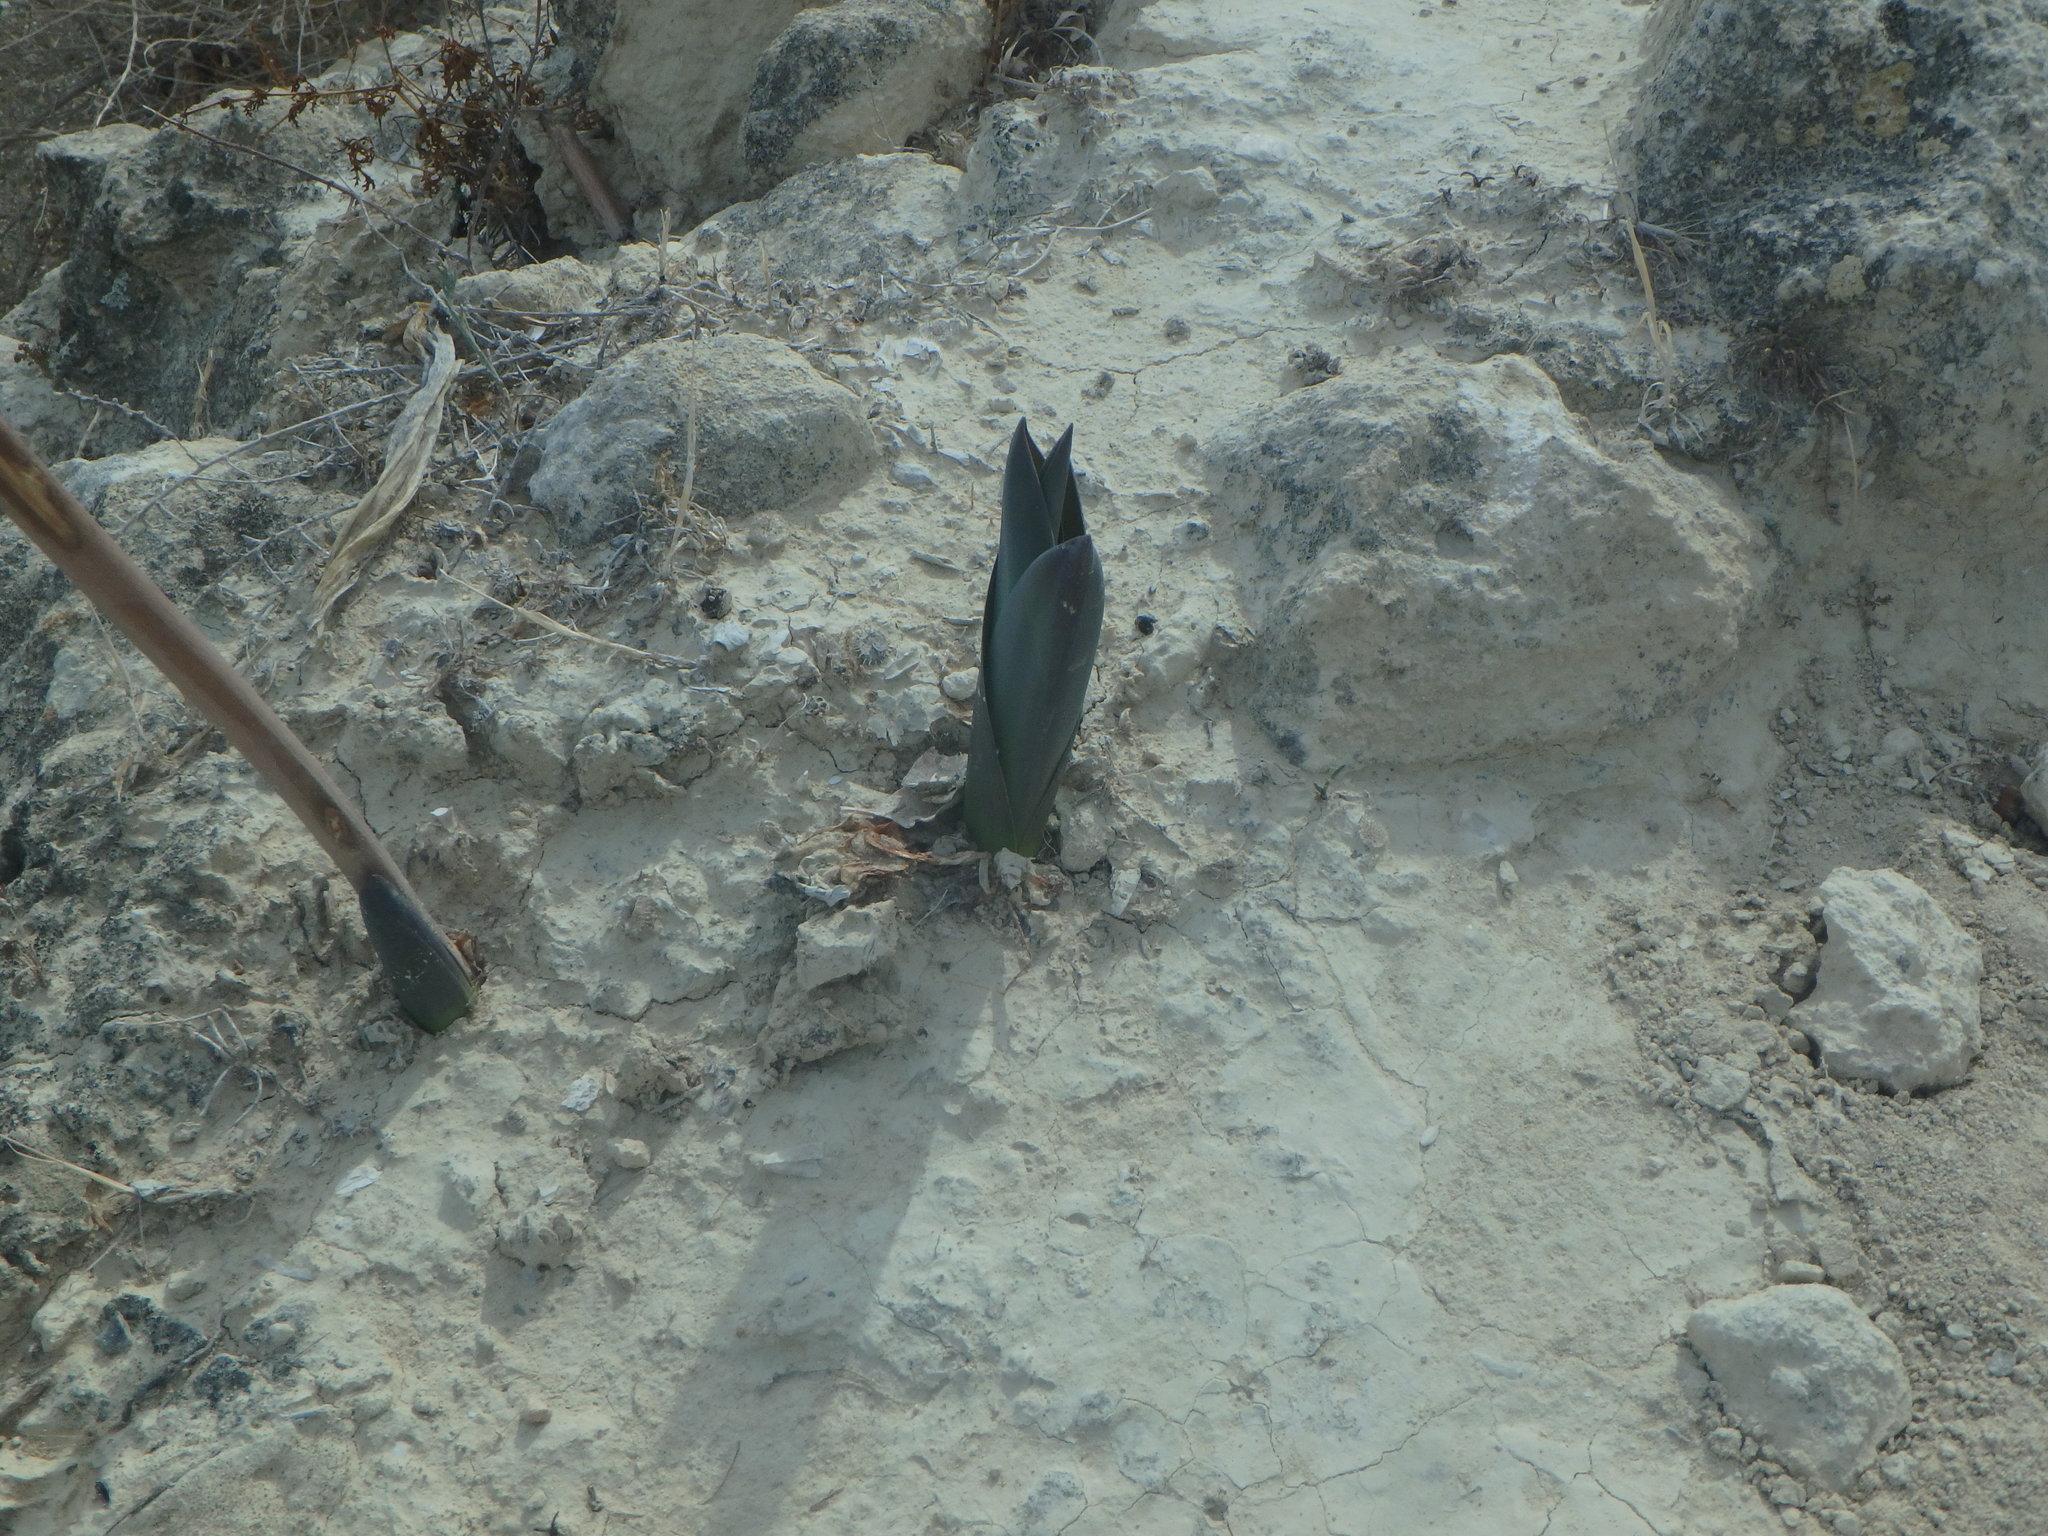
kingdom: Plantae
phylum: Tracheophyta
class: Liliopsida
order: Asparagales
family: Asparagaceae
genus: Drimia
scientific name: Drimia aphylla
